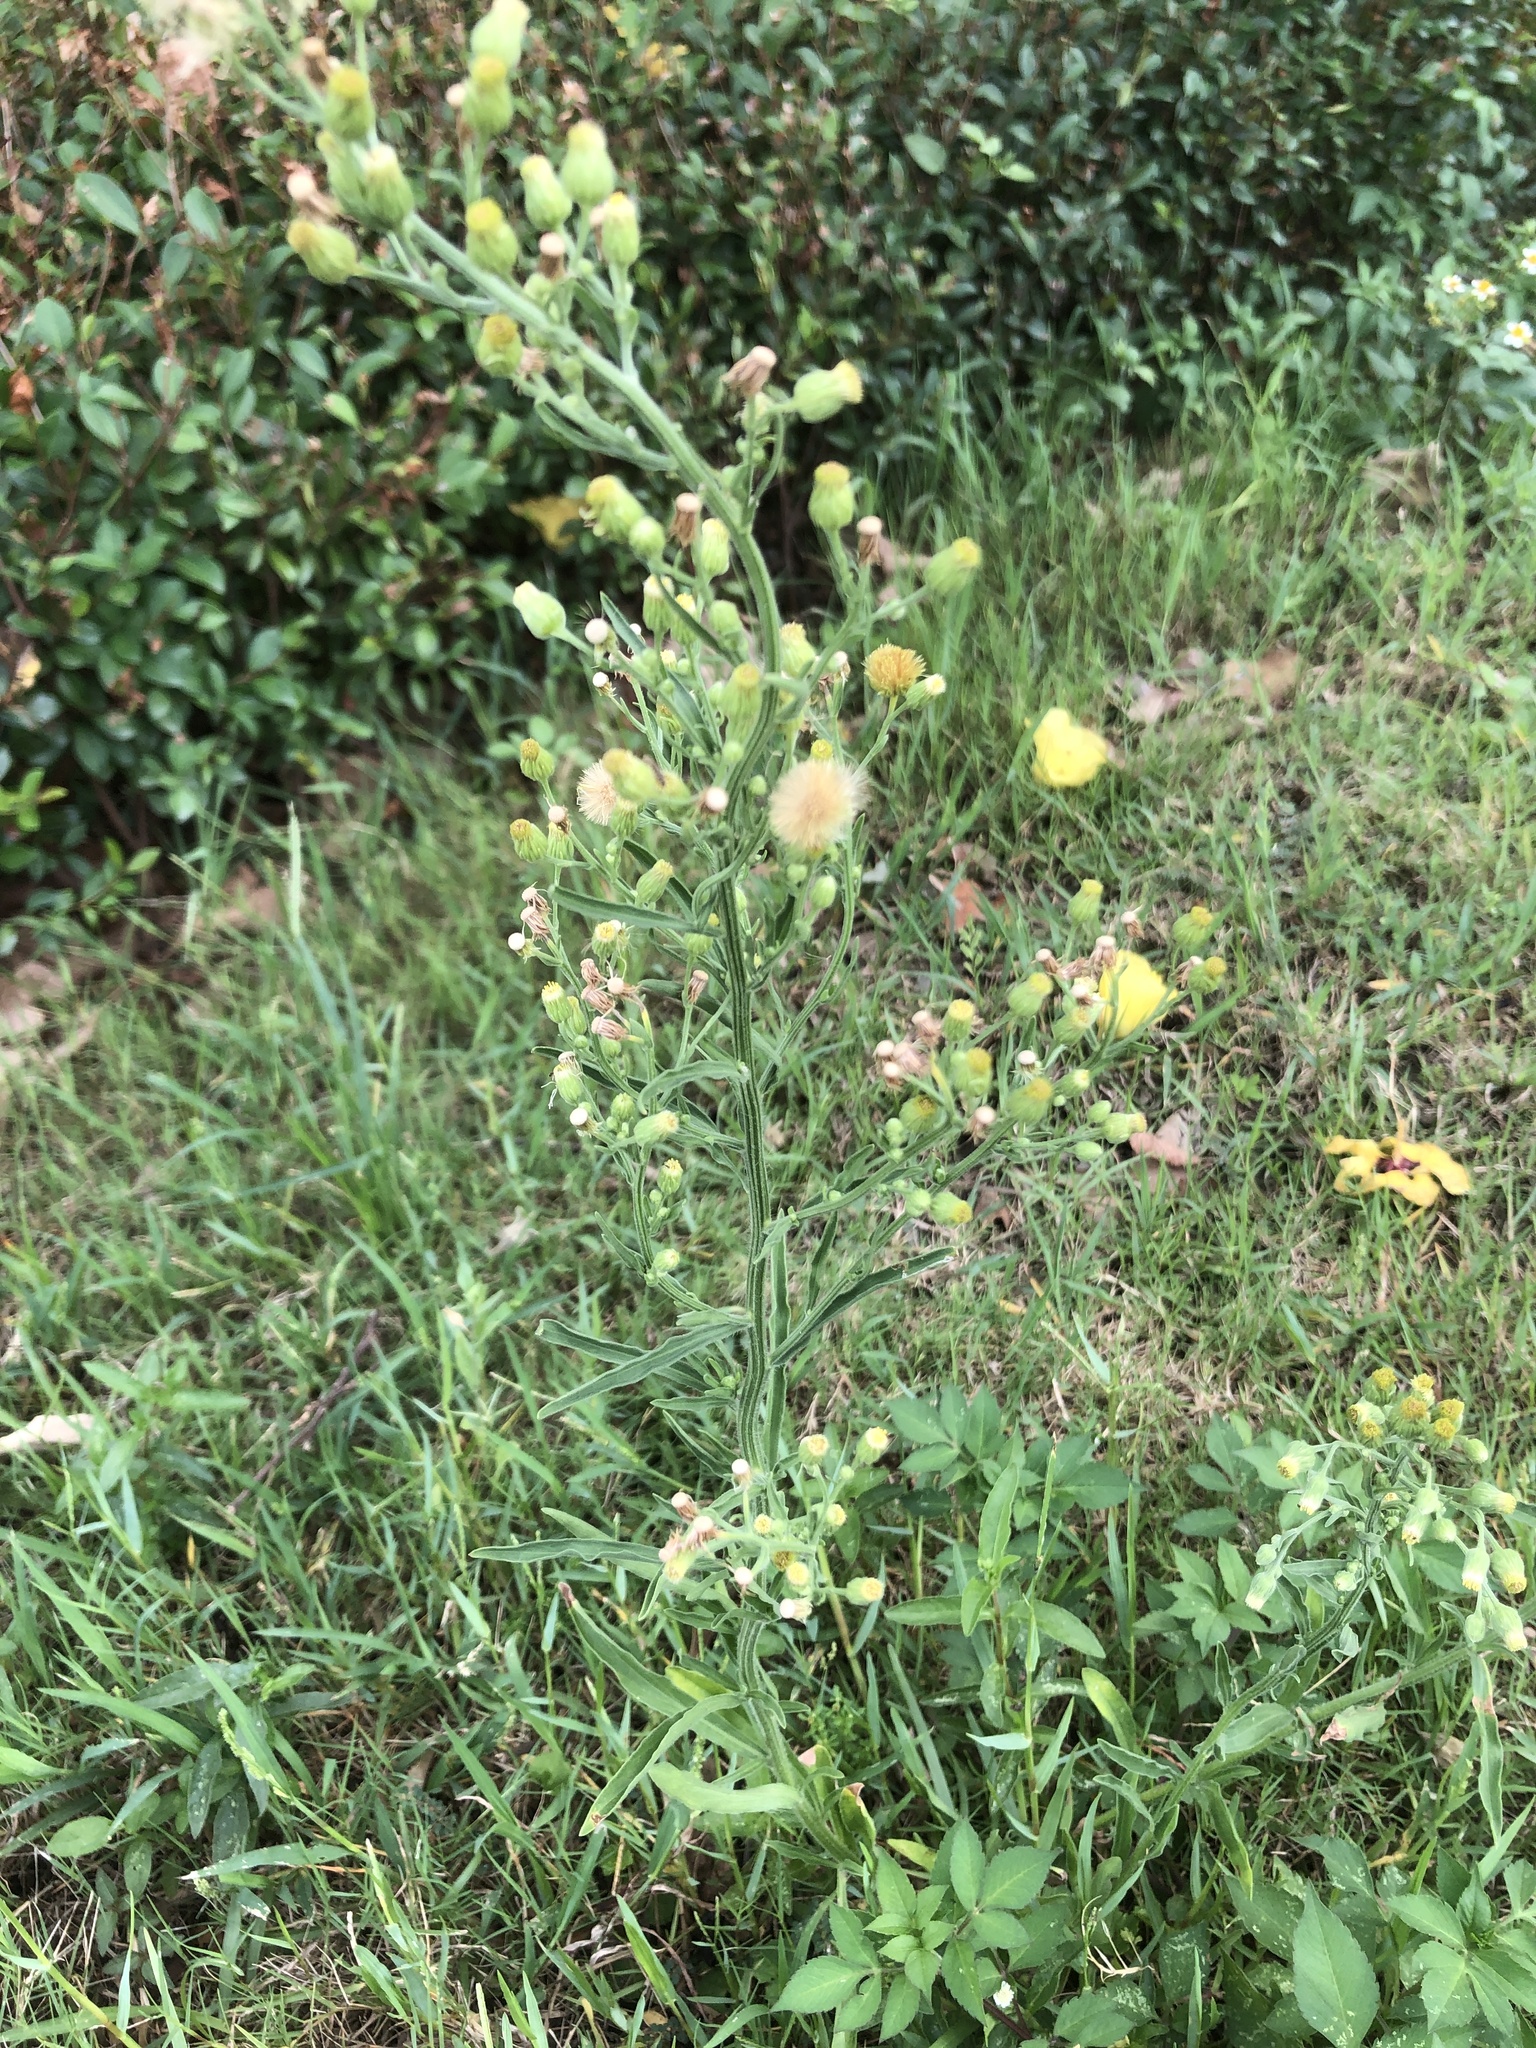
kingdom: Plantae
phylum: Tracheophyta
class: Magnoliopsida
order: Asterales
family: Asteraceae
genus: Erigeron
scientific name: Erigeron sumatrensis
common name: Daisy
